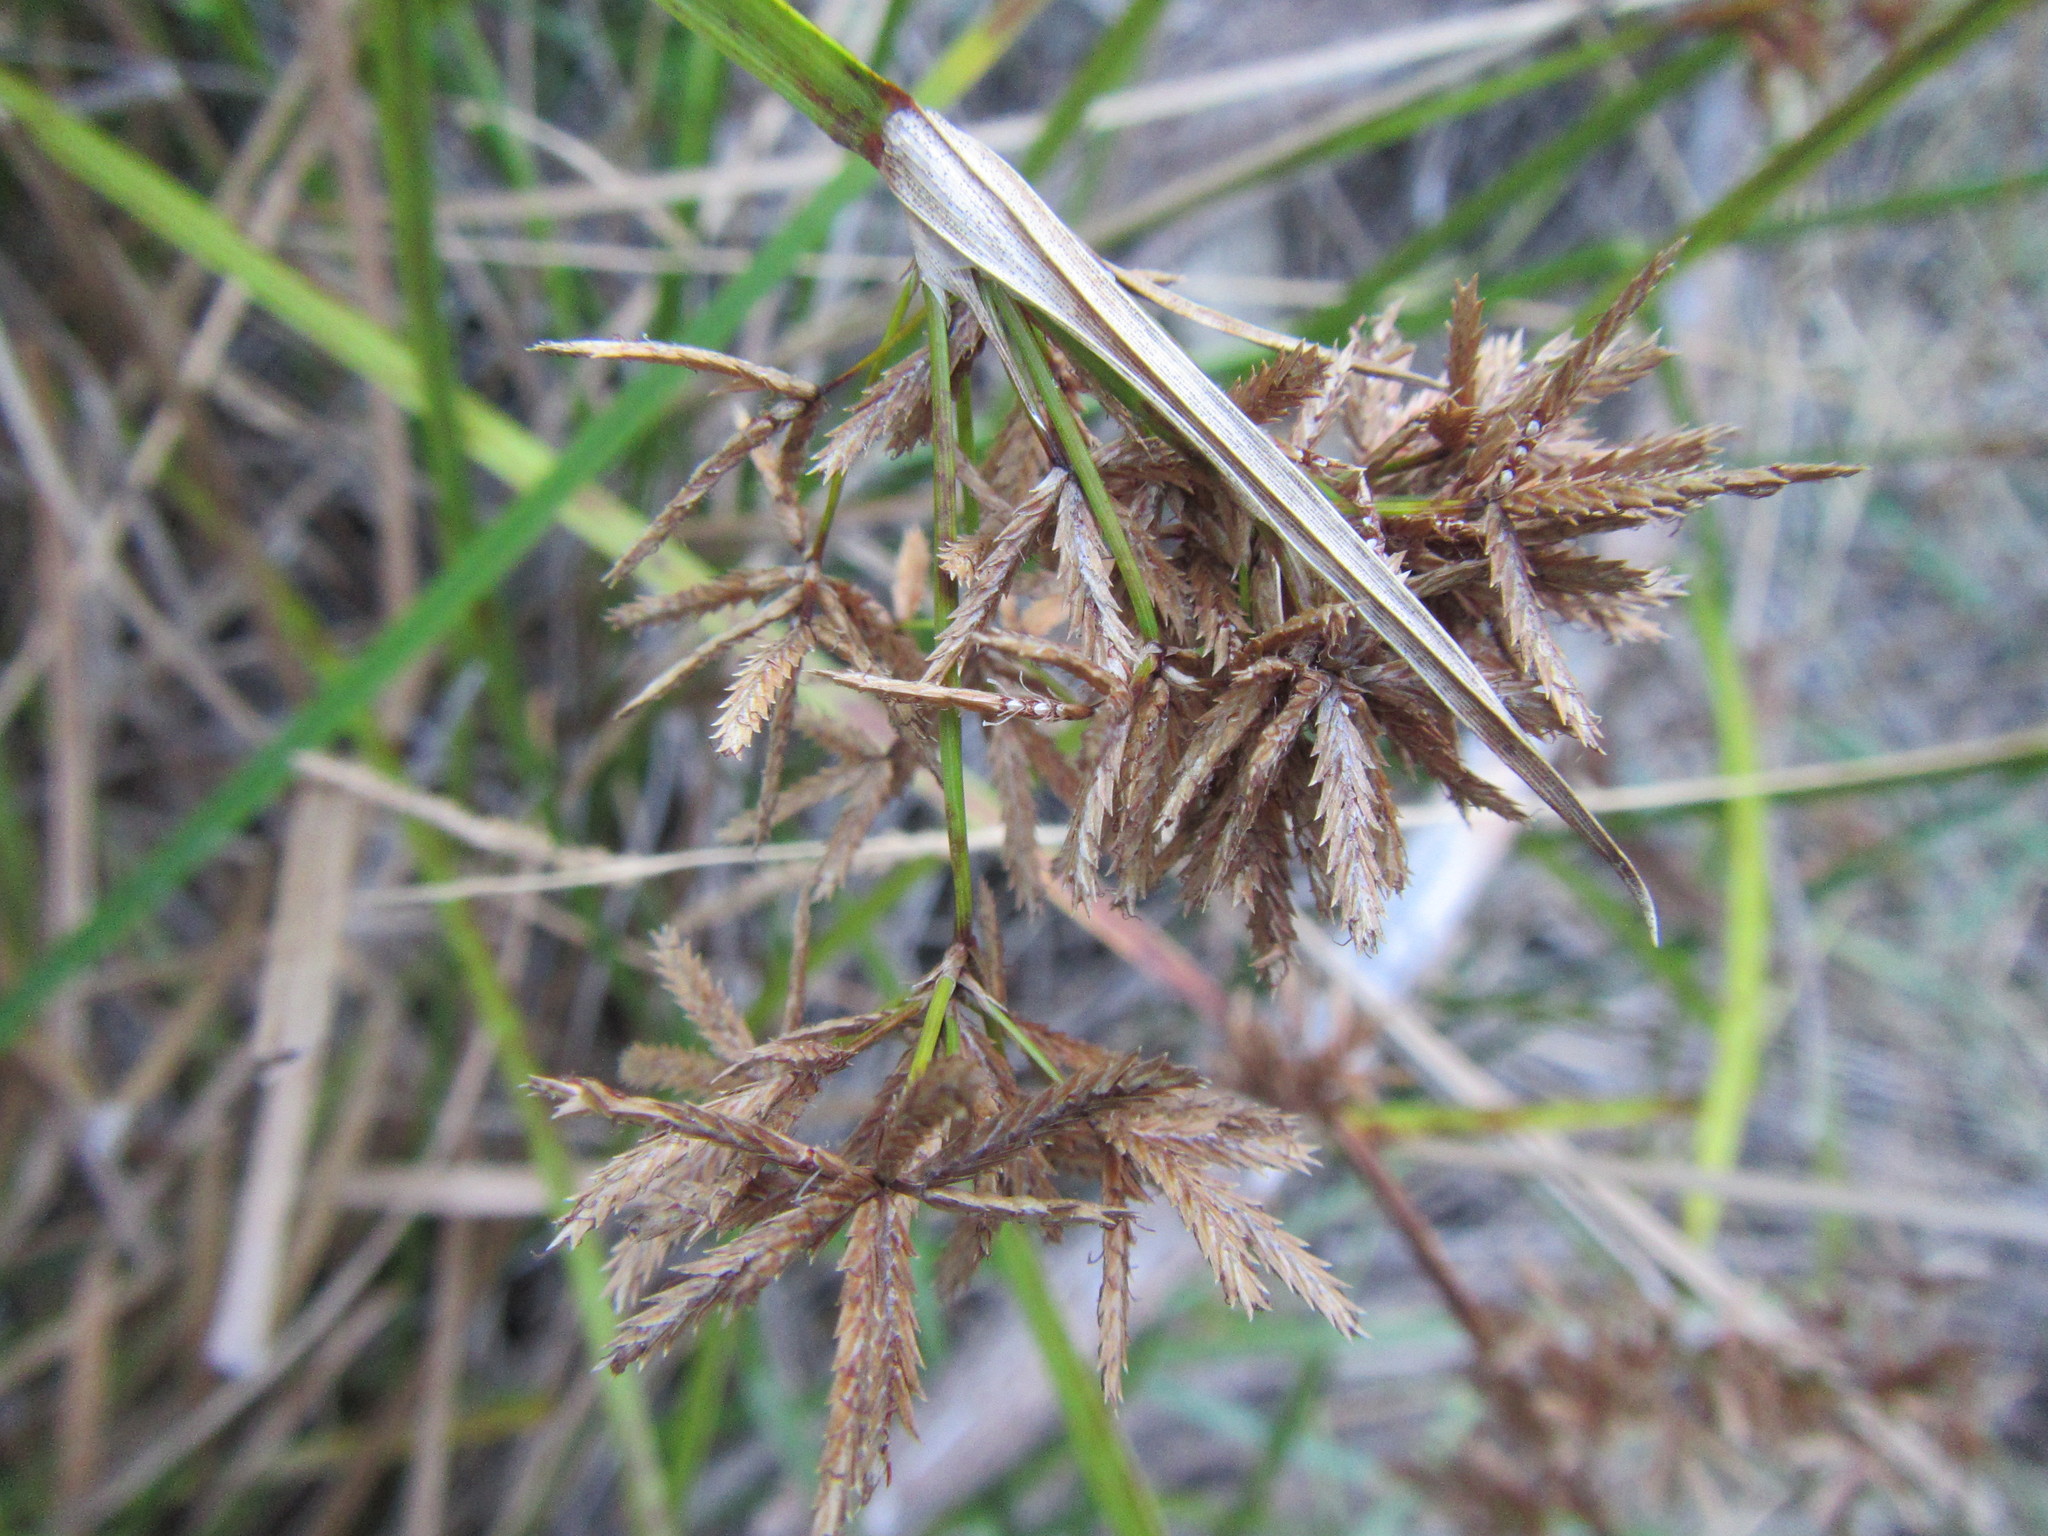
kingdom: Plantae
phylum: Tracheophyta
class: Liliopsida
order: Poales
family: Cyperaceae
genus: Cyperus
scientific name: Cyperus sphaerospermus
